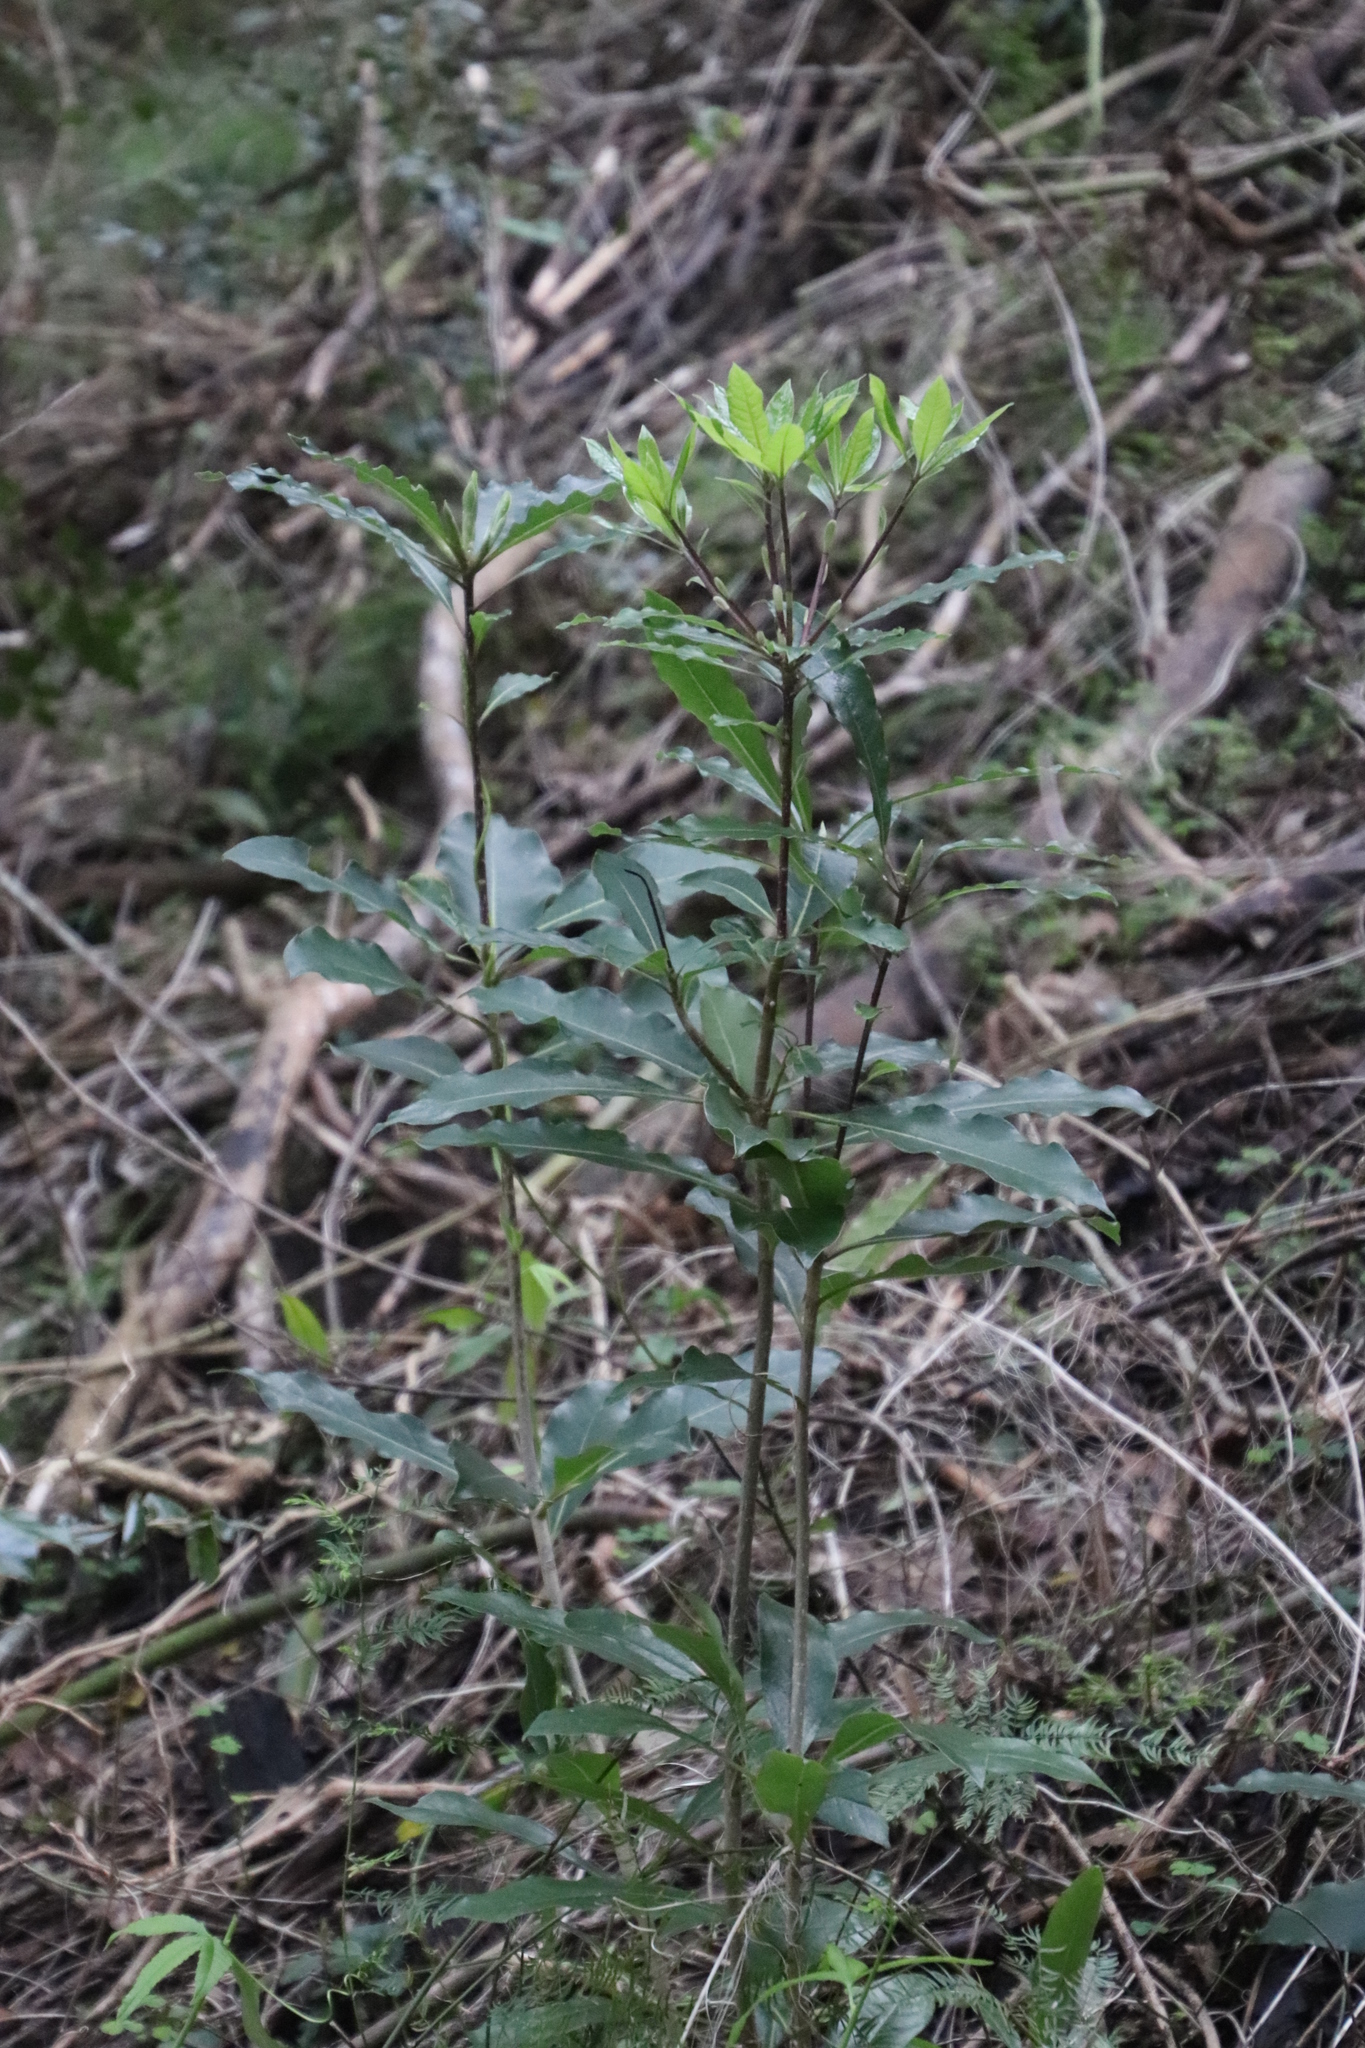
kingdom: Plantae
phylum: Tracheophyta
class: Magnoliopsida
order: Apiales
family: Pittosporaceae
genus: Pittosporum
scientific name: Pittosporum undulatum
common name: Australian cheesewood
